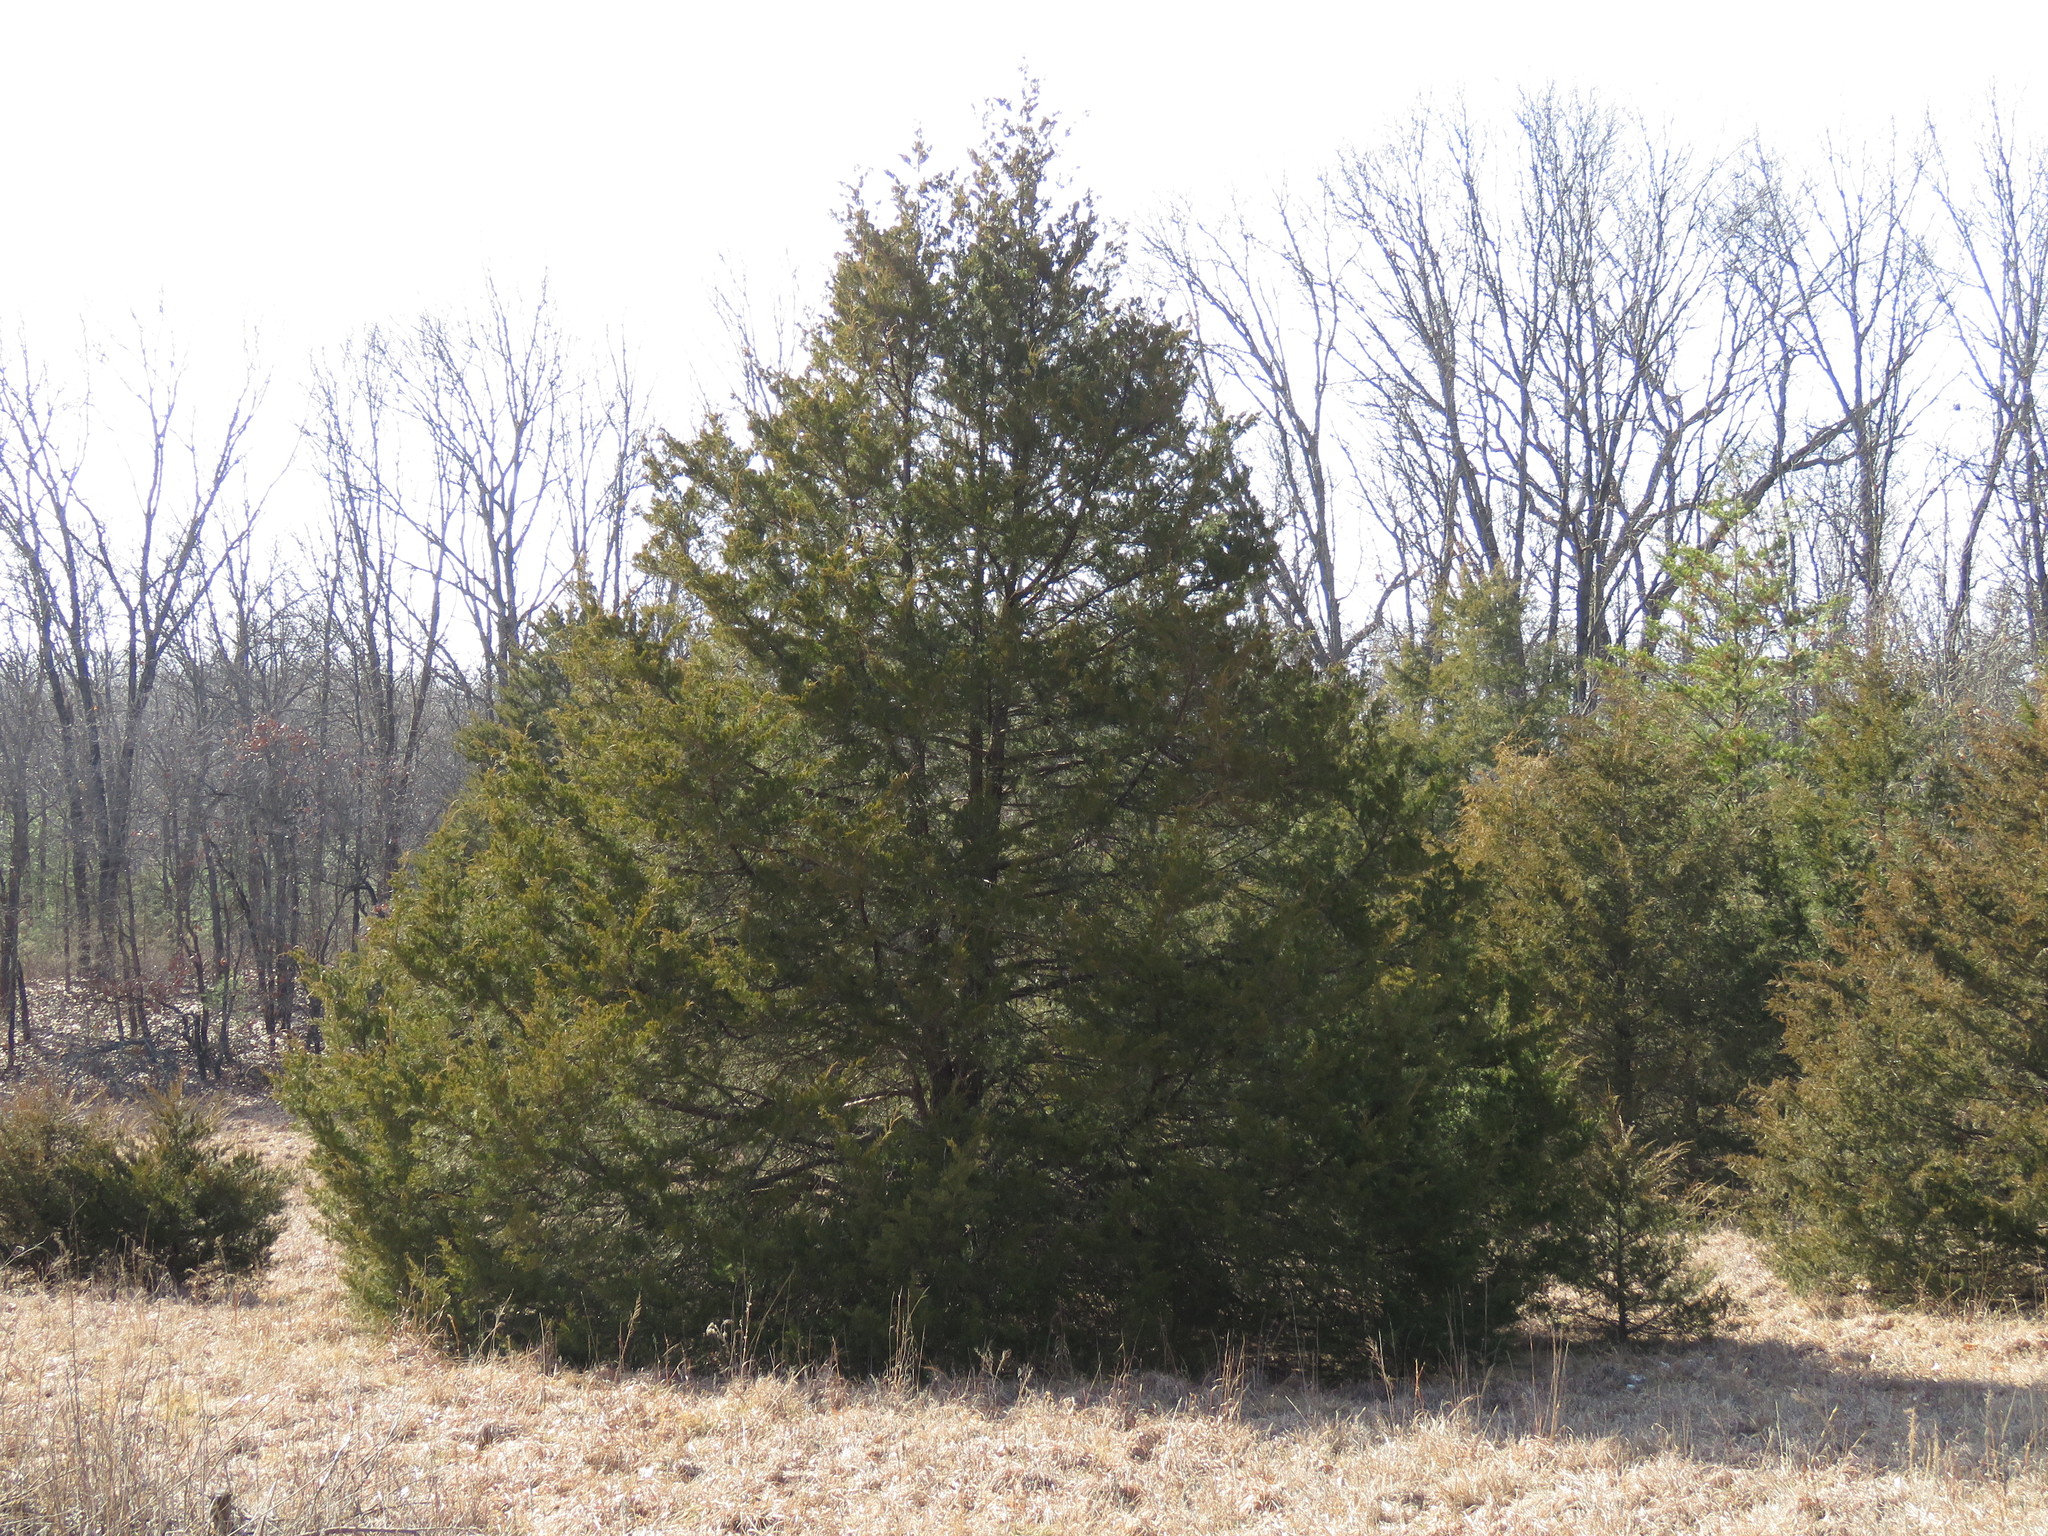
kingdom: Plantae
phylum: Tracheophyta
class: Pinopsida
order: Pinales
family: Cupressaceae
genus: Juniperus
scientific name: Juniperus virginiana
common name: Red juniper
